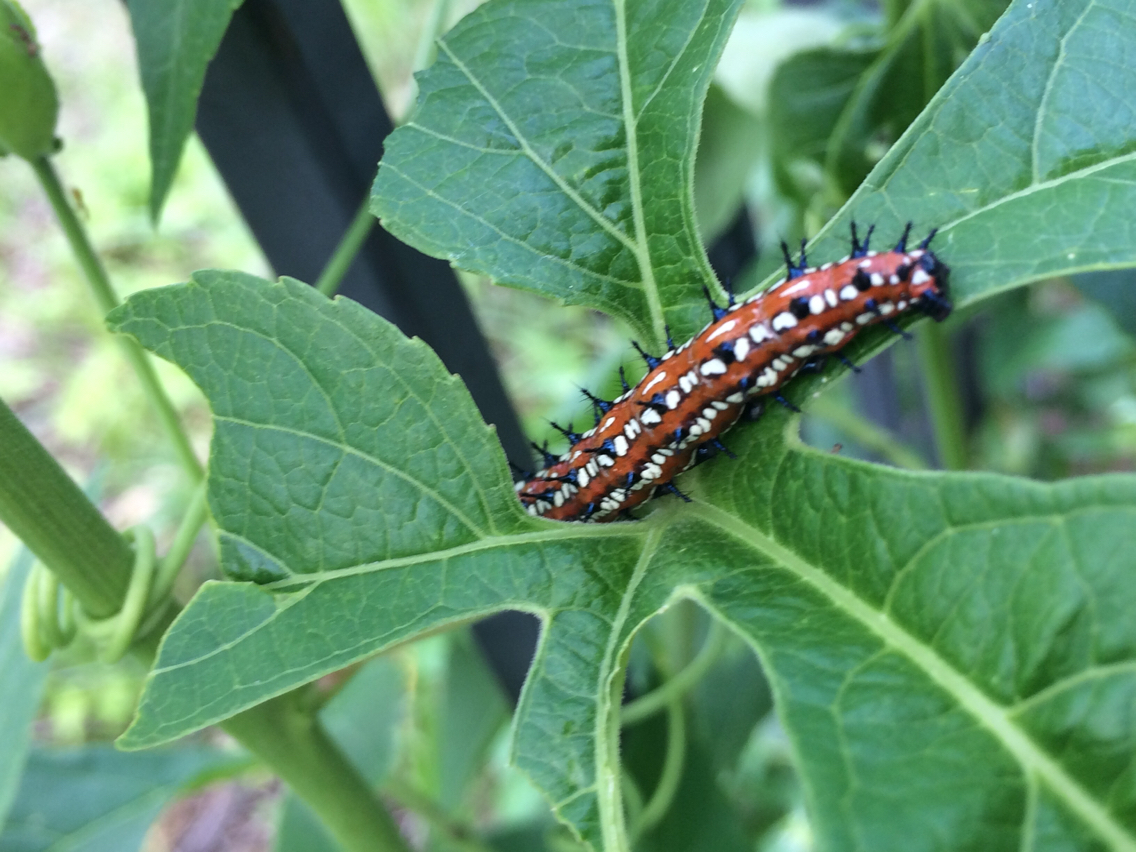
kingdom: Animalia
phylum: Arthropoda
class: Insecta
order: Lepidoptera
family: Nymphalidae
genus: Euptoieta
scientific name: Euptoieta claudia
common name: Variegated fritillary
